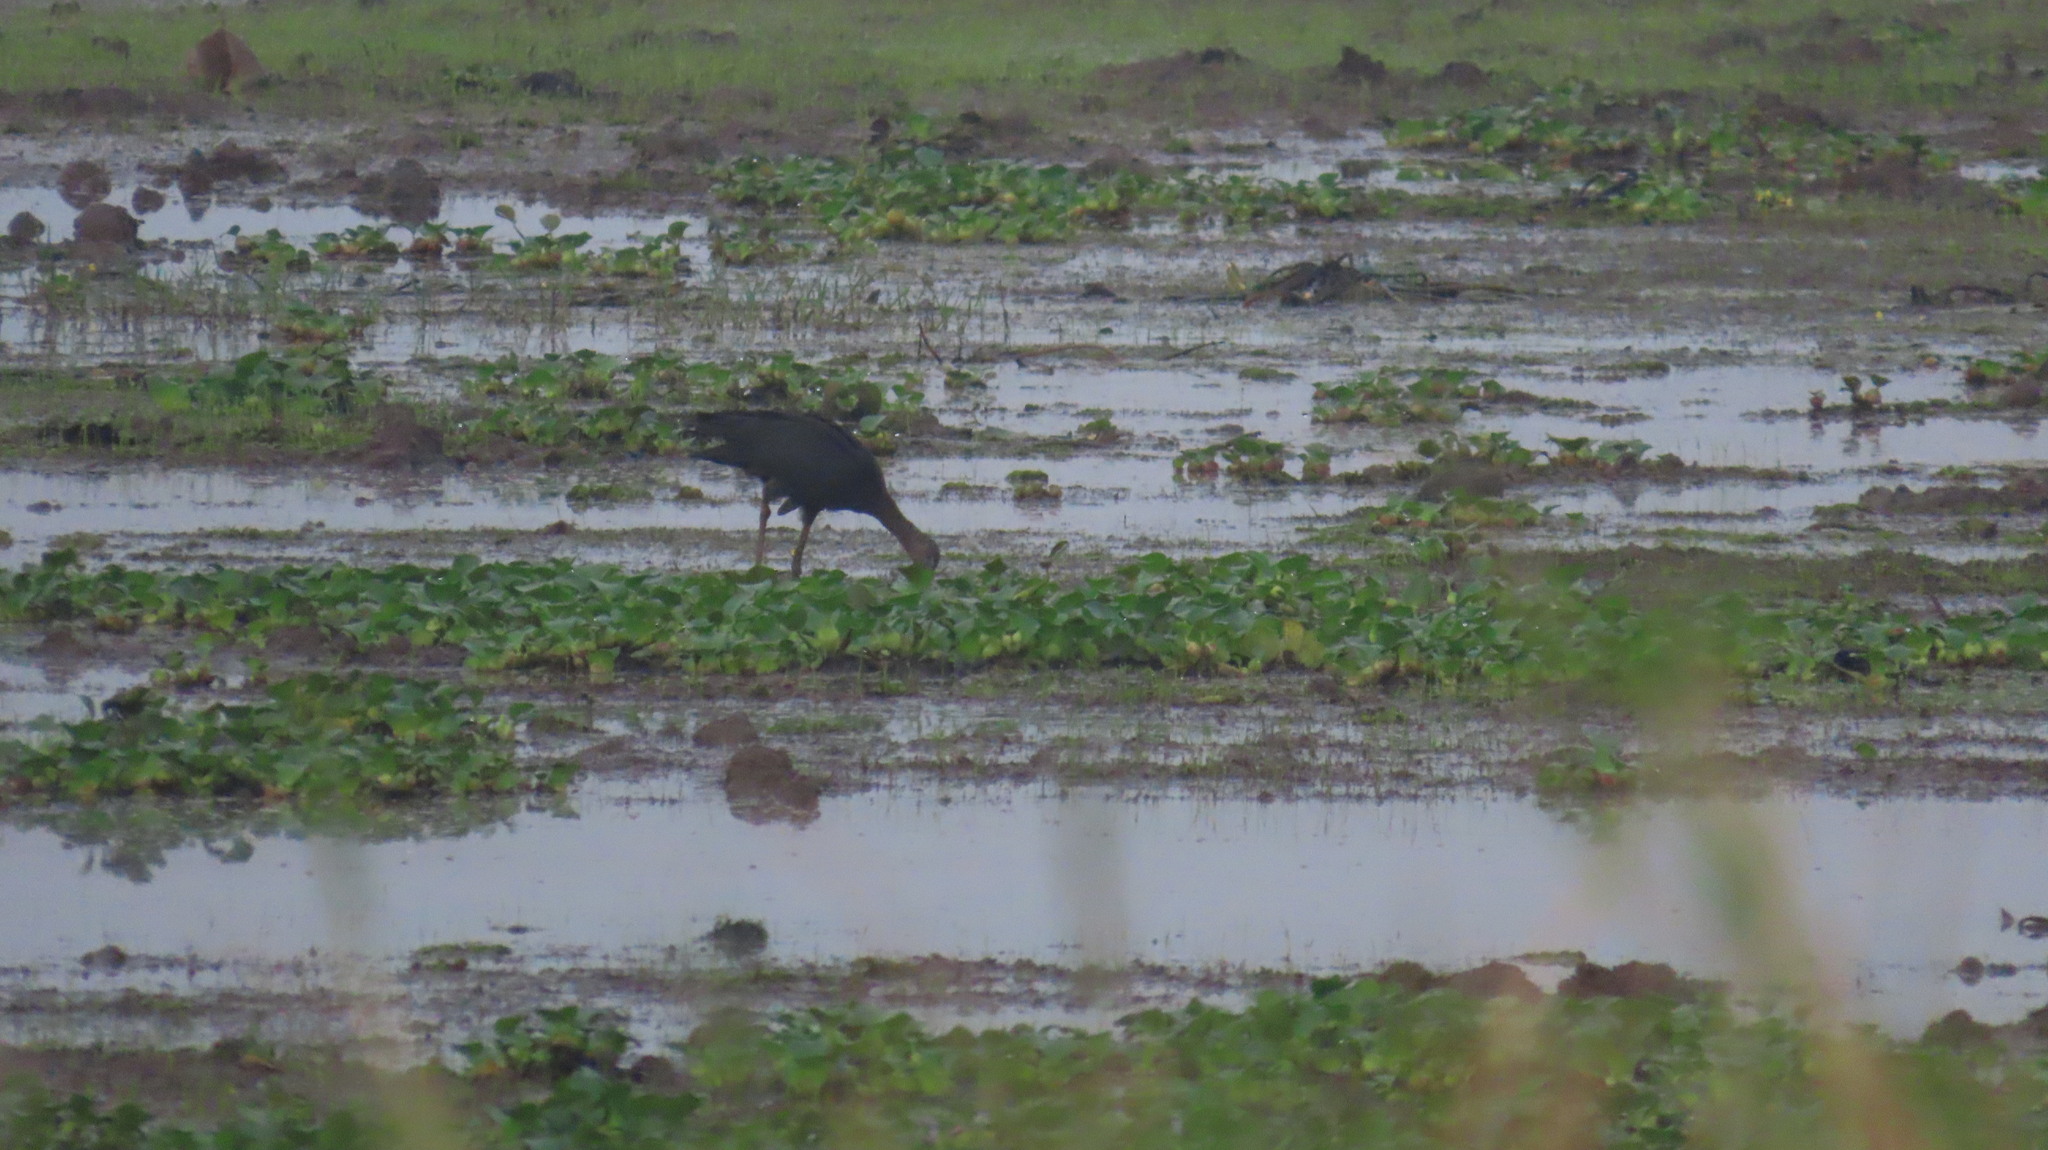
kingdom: Animalia
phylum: Chordata
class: Aves
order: Pelecaniformes
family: Threskiornithidae
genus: Plegadis
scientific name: Plegadis falcinellus
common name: Glossy ibis
